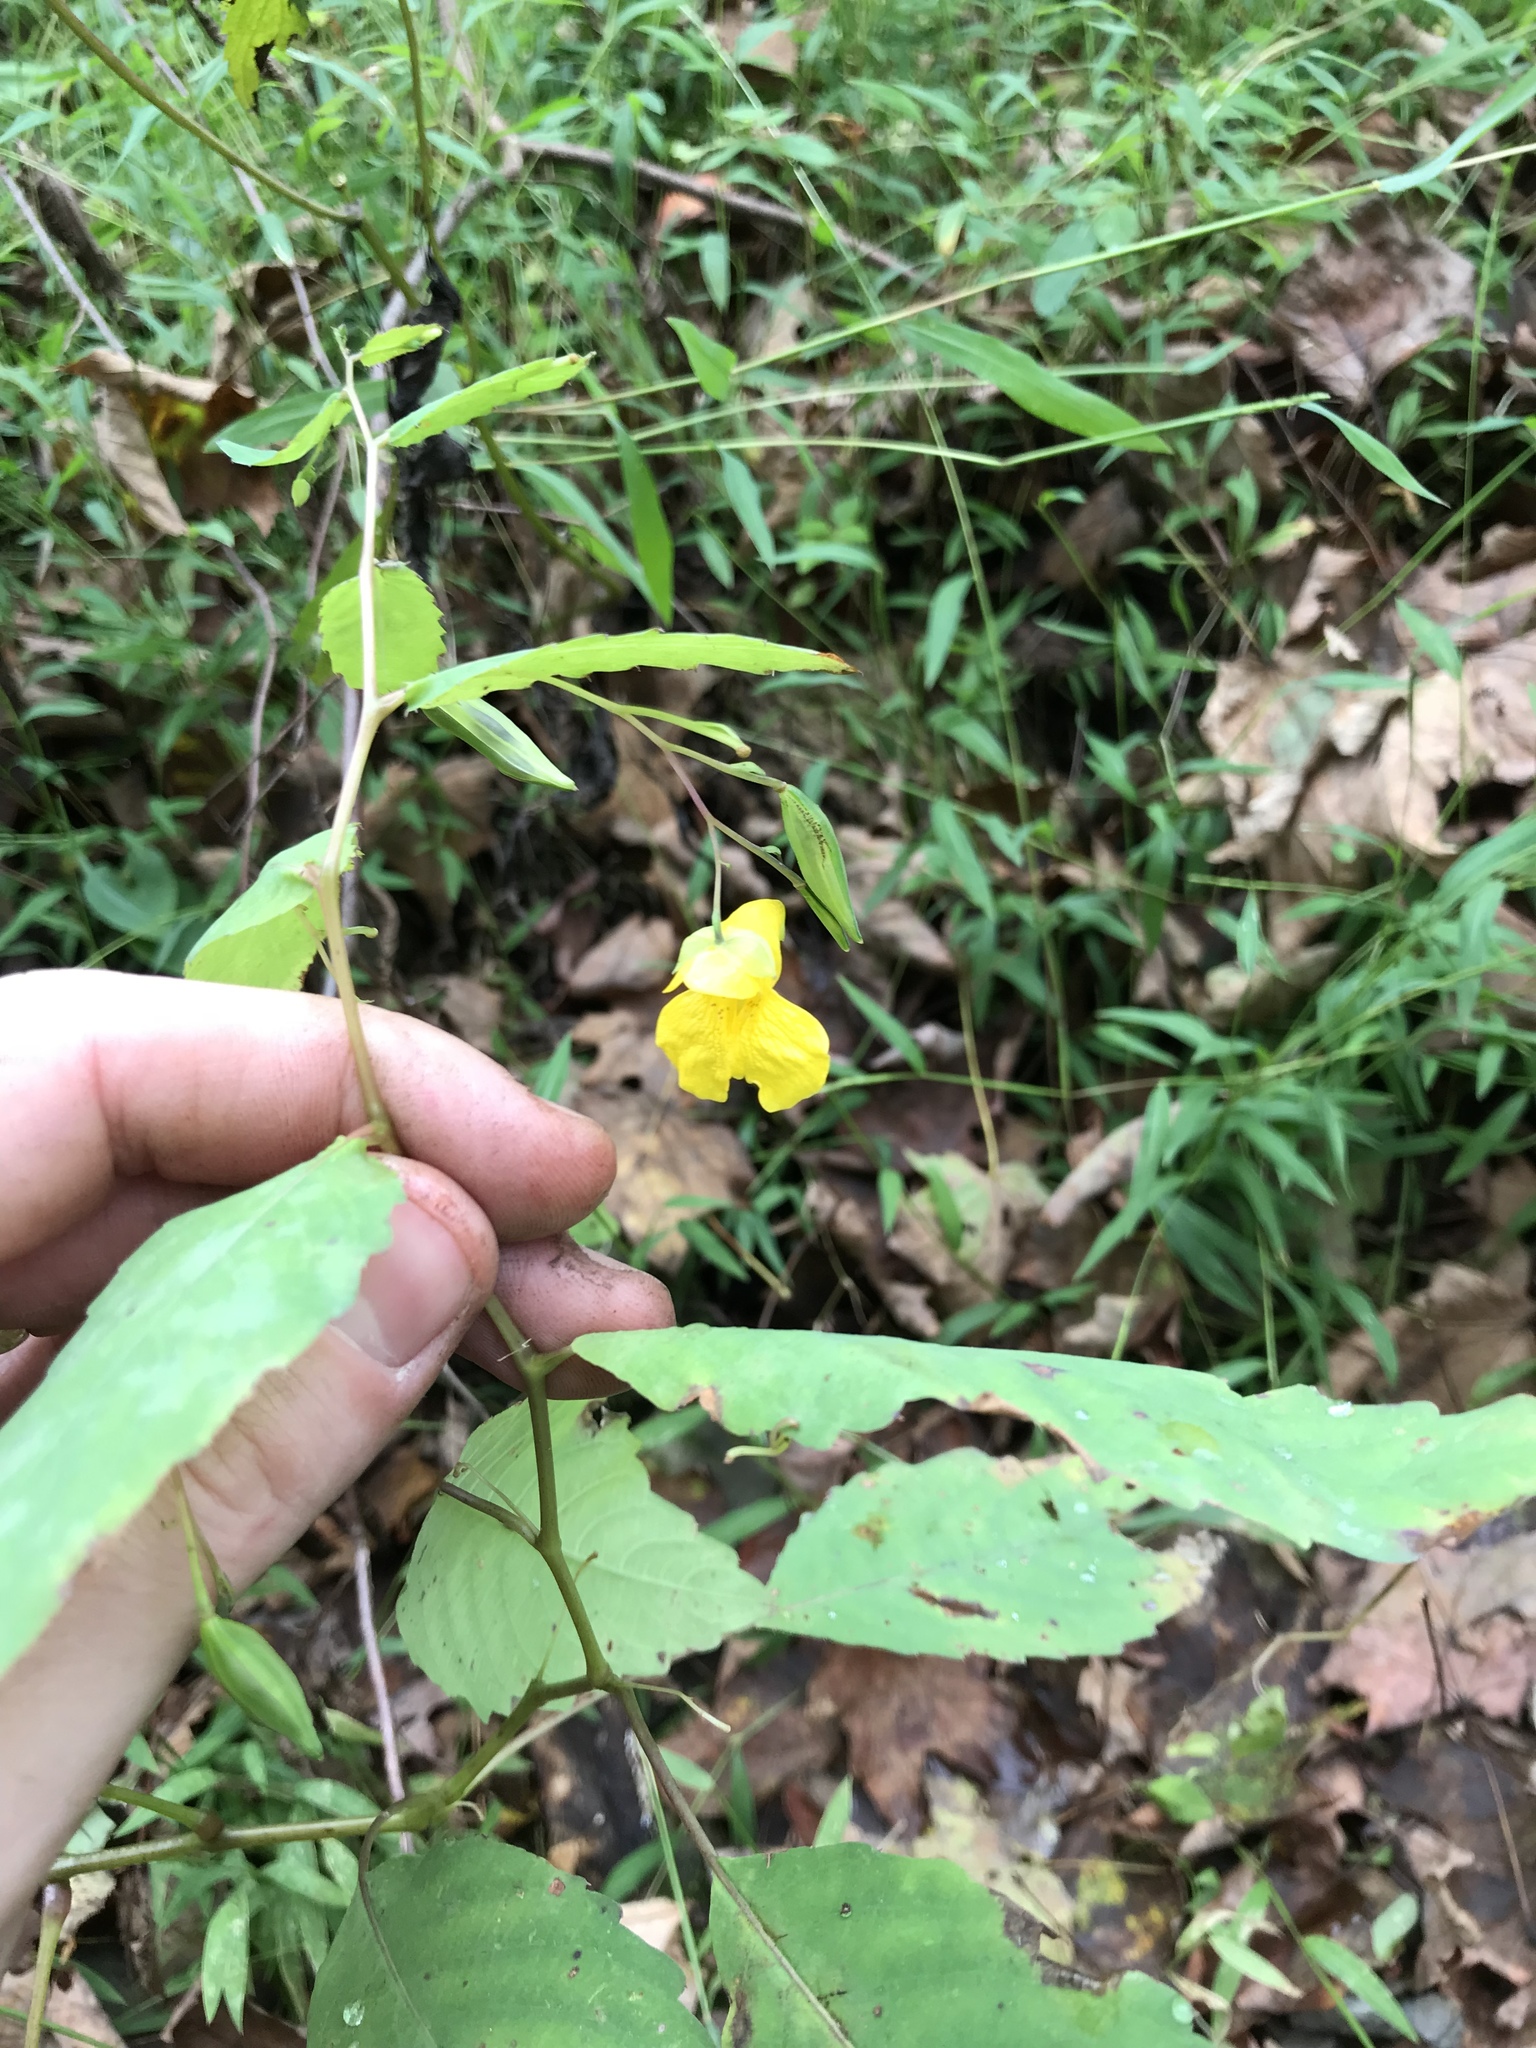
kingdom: Plantae
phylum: Tracheophyta
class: Magnoliopsida
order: Ericales
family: Balsaminaceae
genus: Impatiens
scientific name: Impatiens pallida
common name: Pale snapweed
